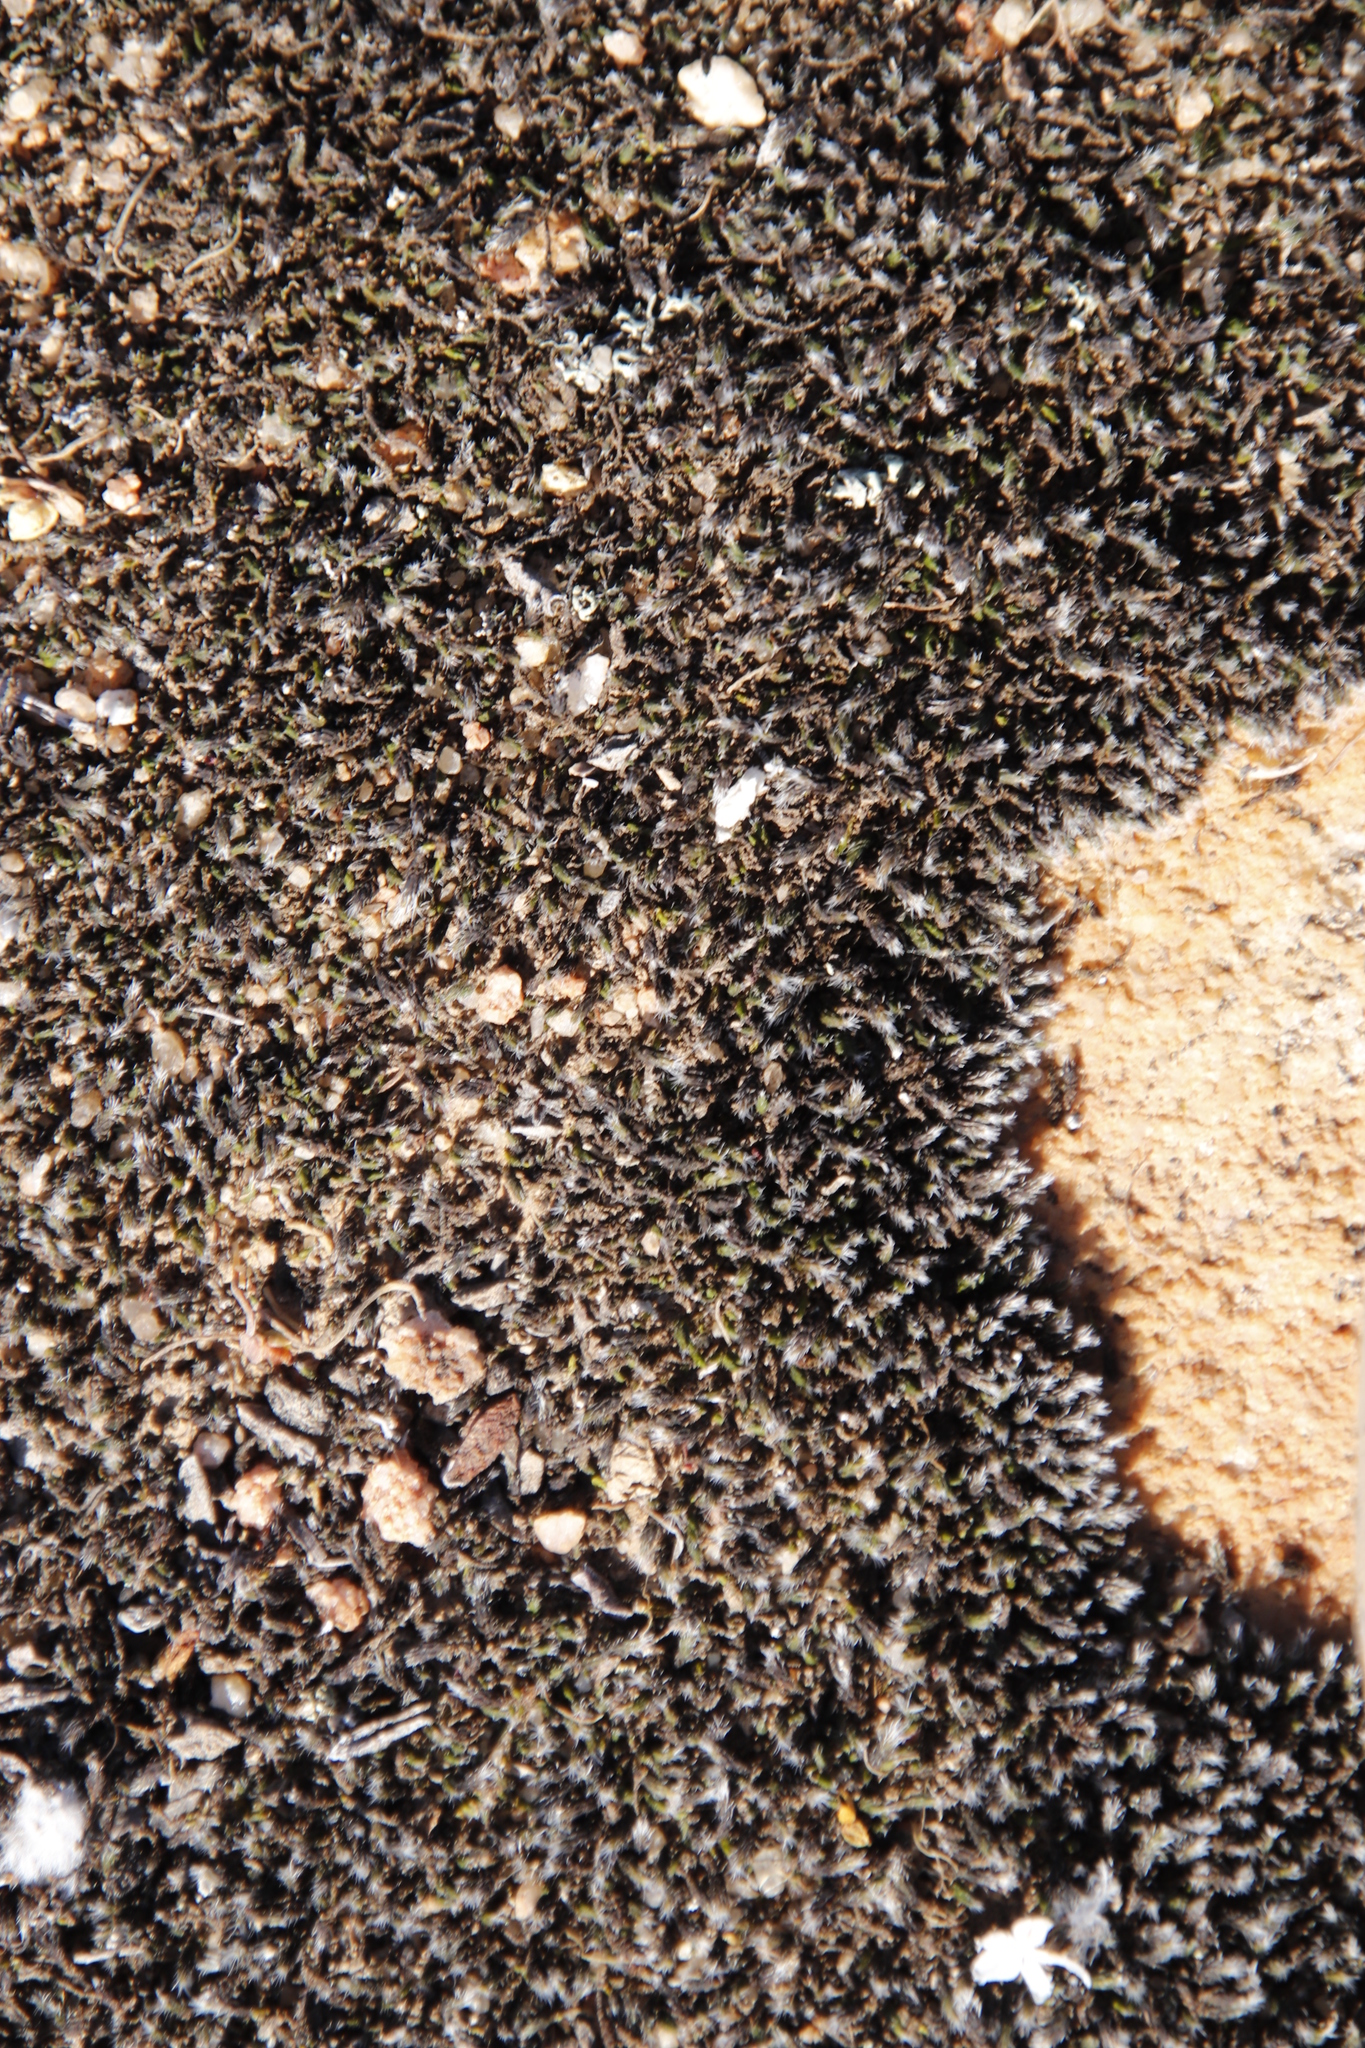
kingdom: Plantae
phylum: Bryophyta
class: Bryopsida
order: Grimmiales
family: Grimmiaceae
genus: Grimmia
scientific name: Grimmia laevigata
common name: Hoary grimmia
